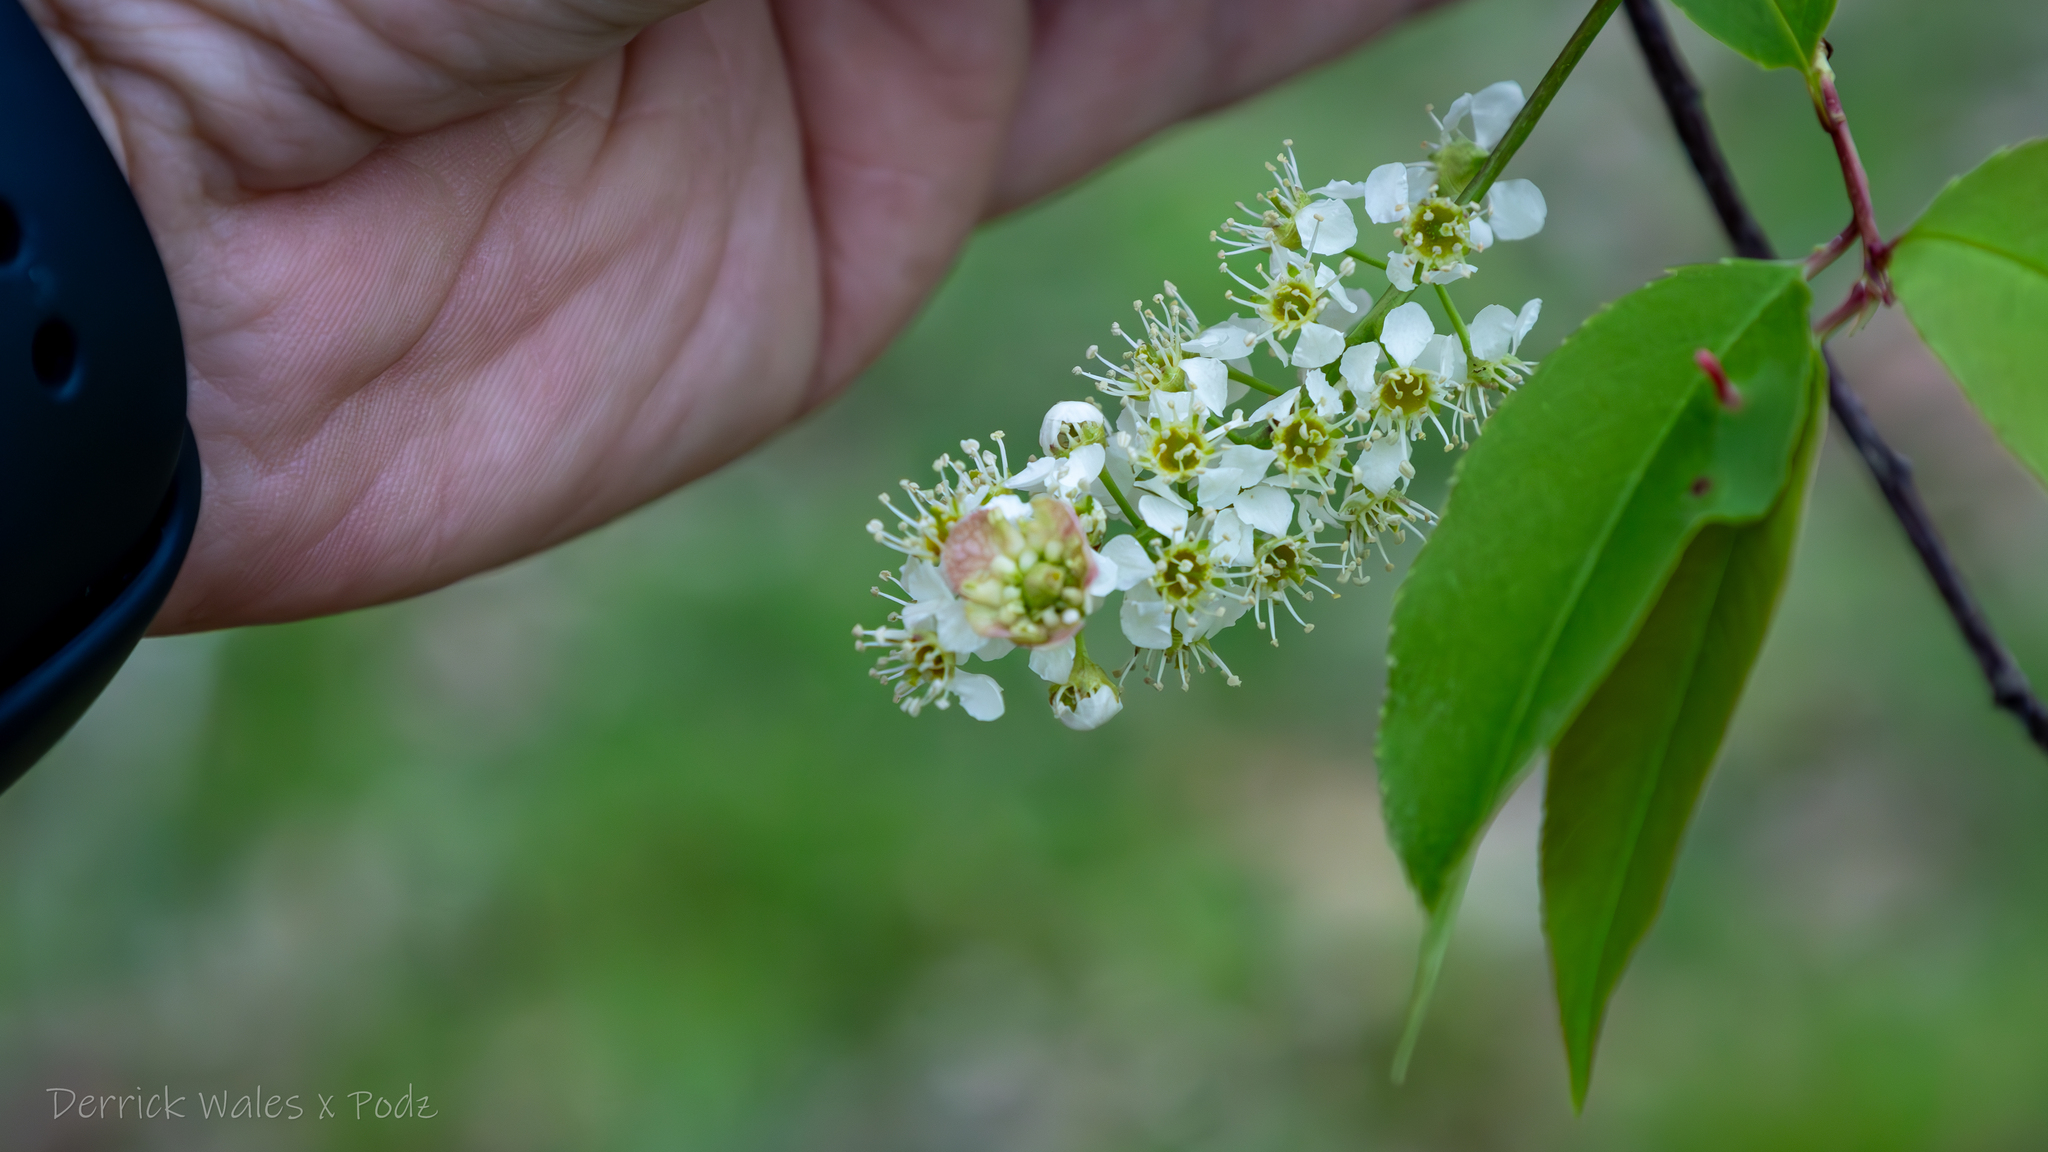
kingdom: Plantae
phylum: Tracheophyta
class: Magnoliopsida
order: Rosales
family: Rosaceae
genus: Prunus
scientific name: Prunus serotina
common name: Black cherry
